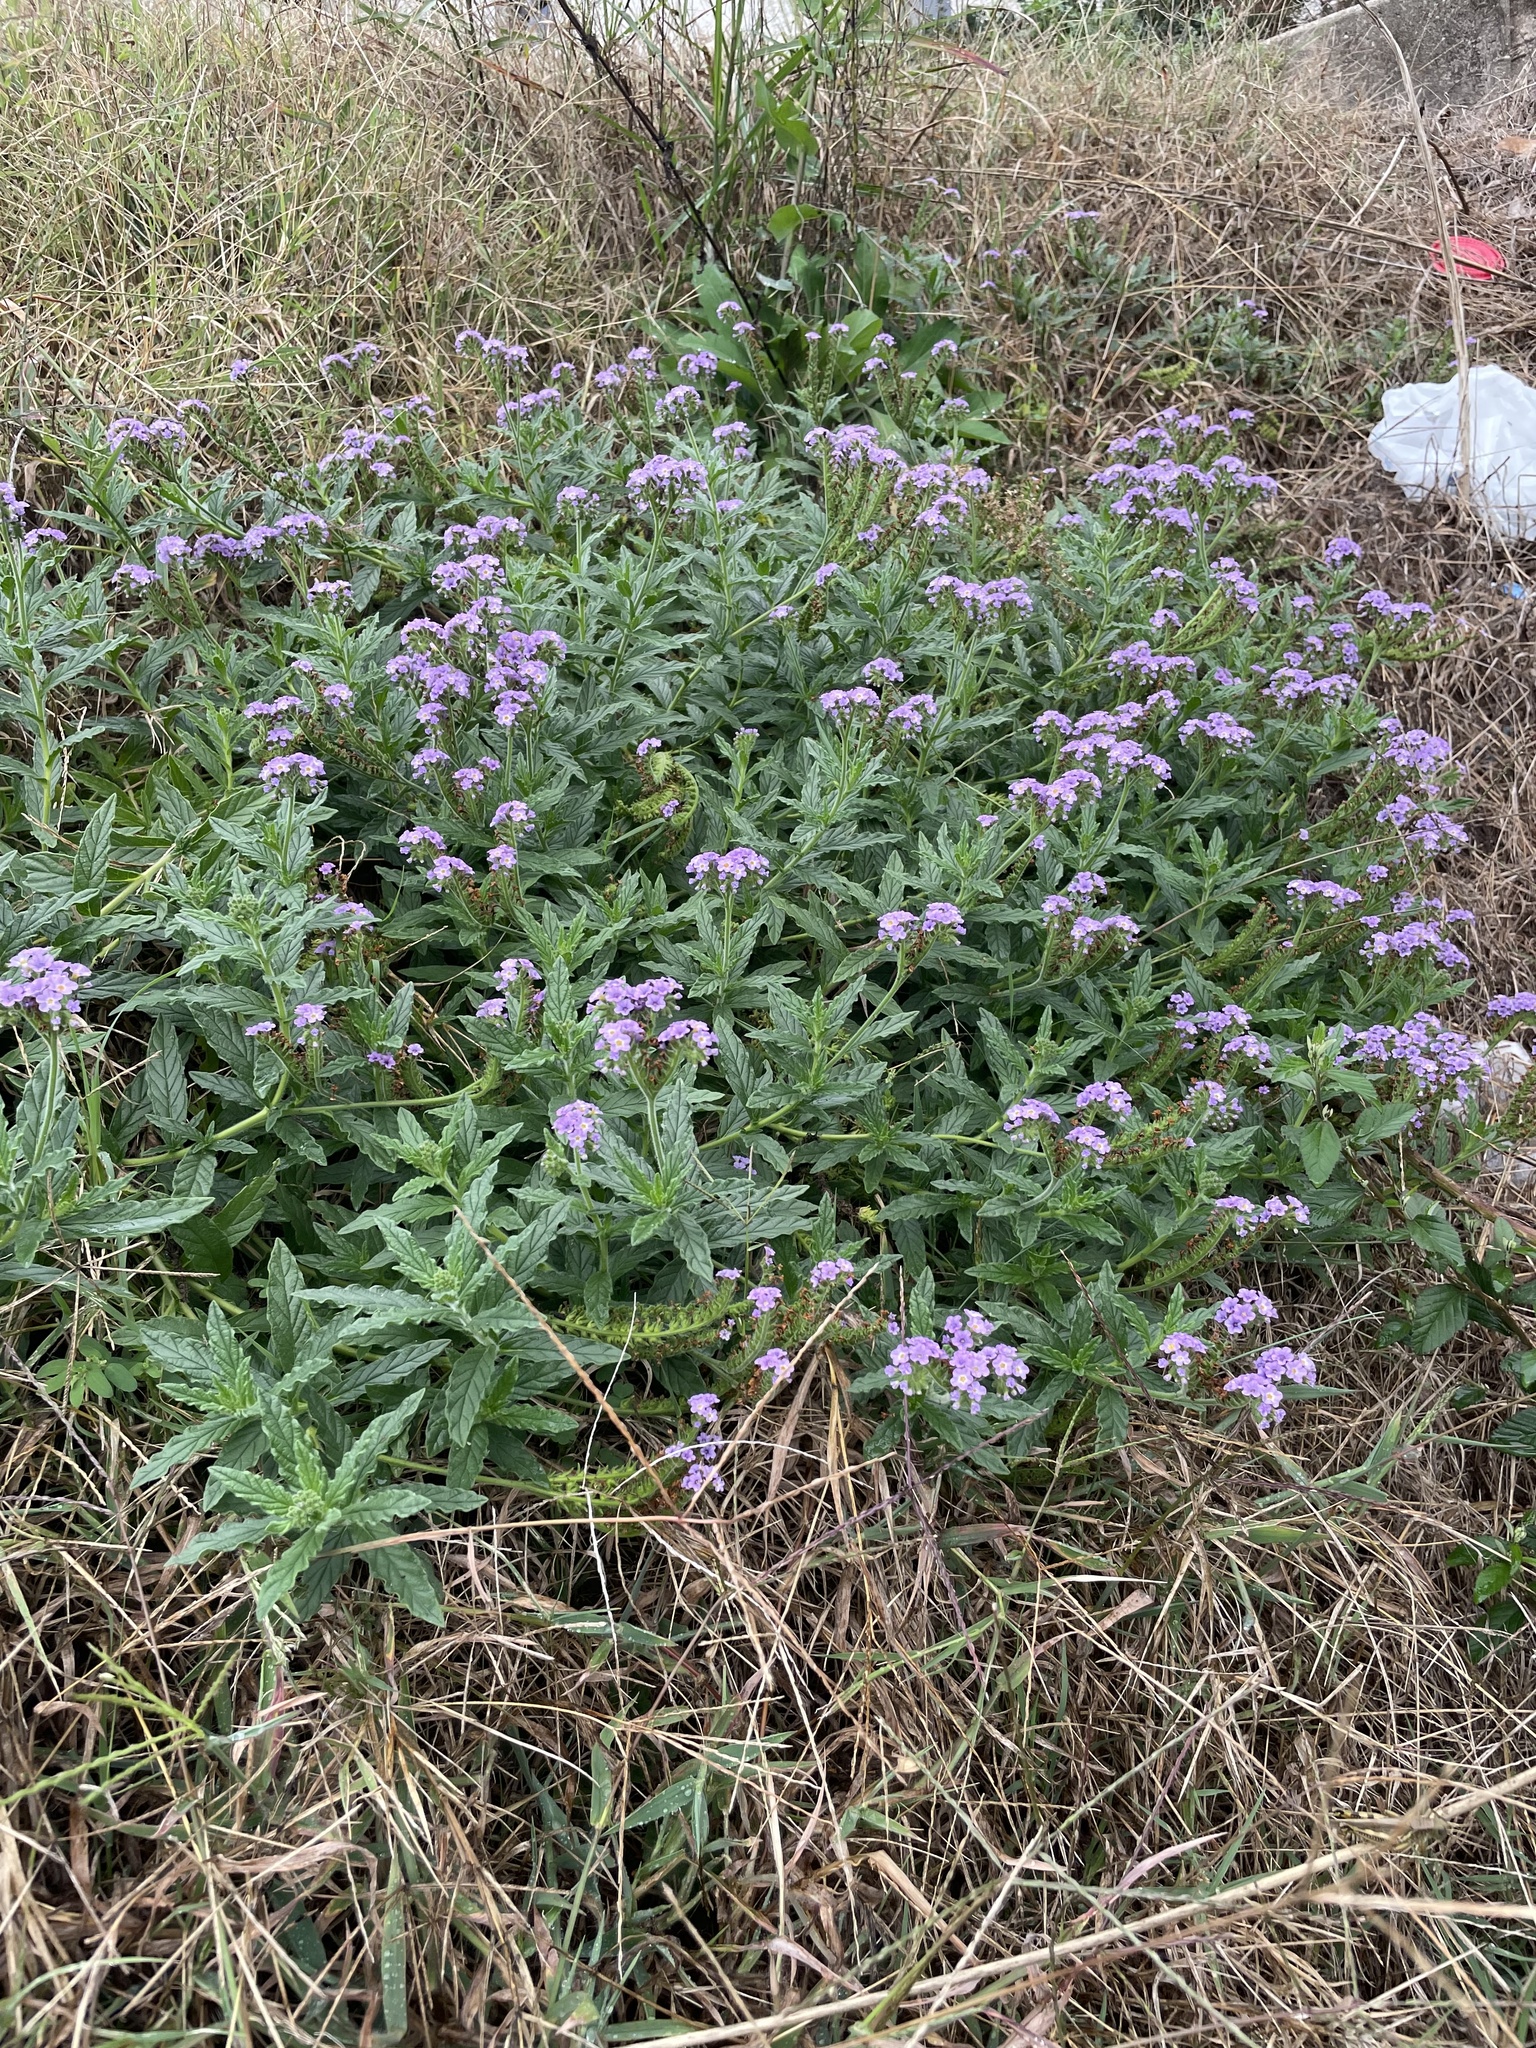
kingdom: Plantae
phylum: Tracheophyta
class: Magnoliopsida
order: Boraginales
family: Heliotropiaceae
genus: Heliotropium
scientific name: Heliotropium amplexicaule
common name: Clasping heliotrope
